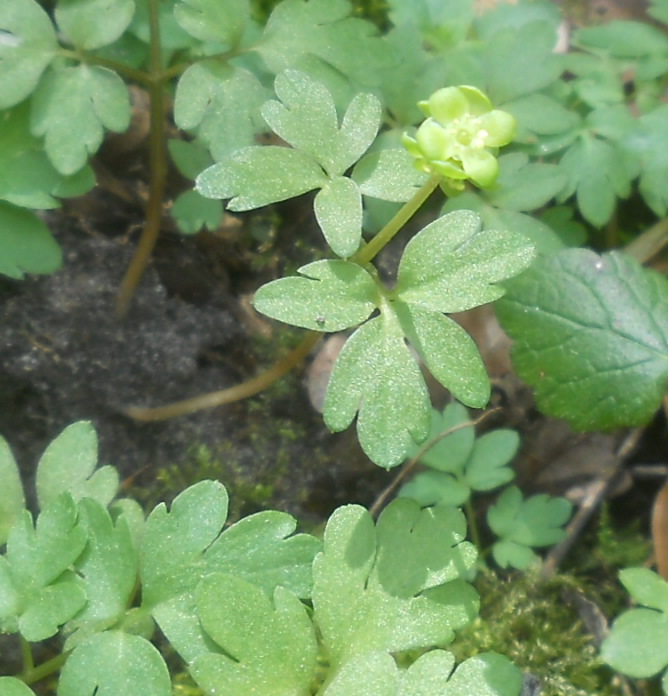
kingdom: Plantae
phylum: Tracheophyta
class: Magnoliopsida
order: Dipsacales
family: Viburnaceae
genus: Adoxa
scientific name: Adoxa moschatellina
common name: Moschatel
